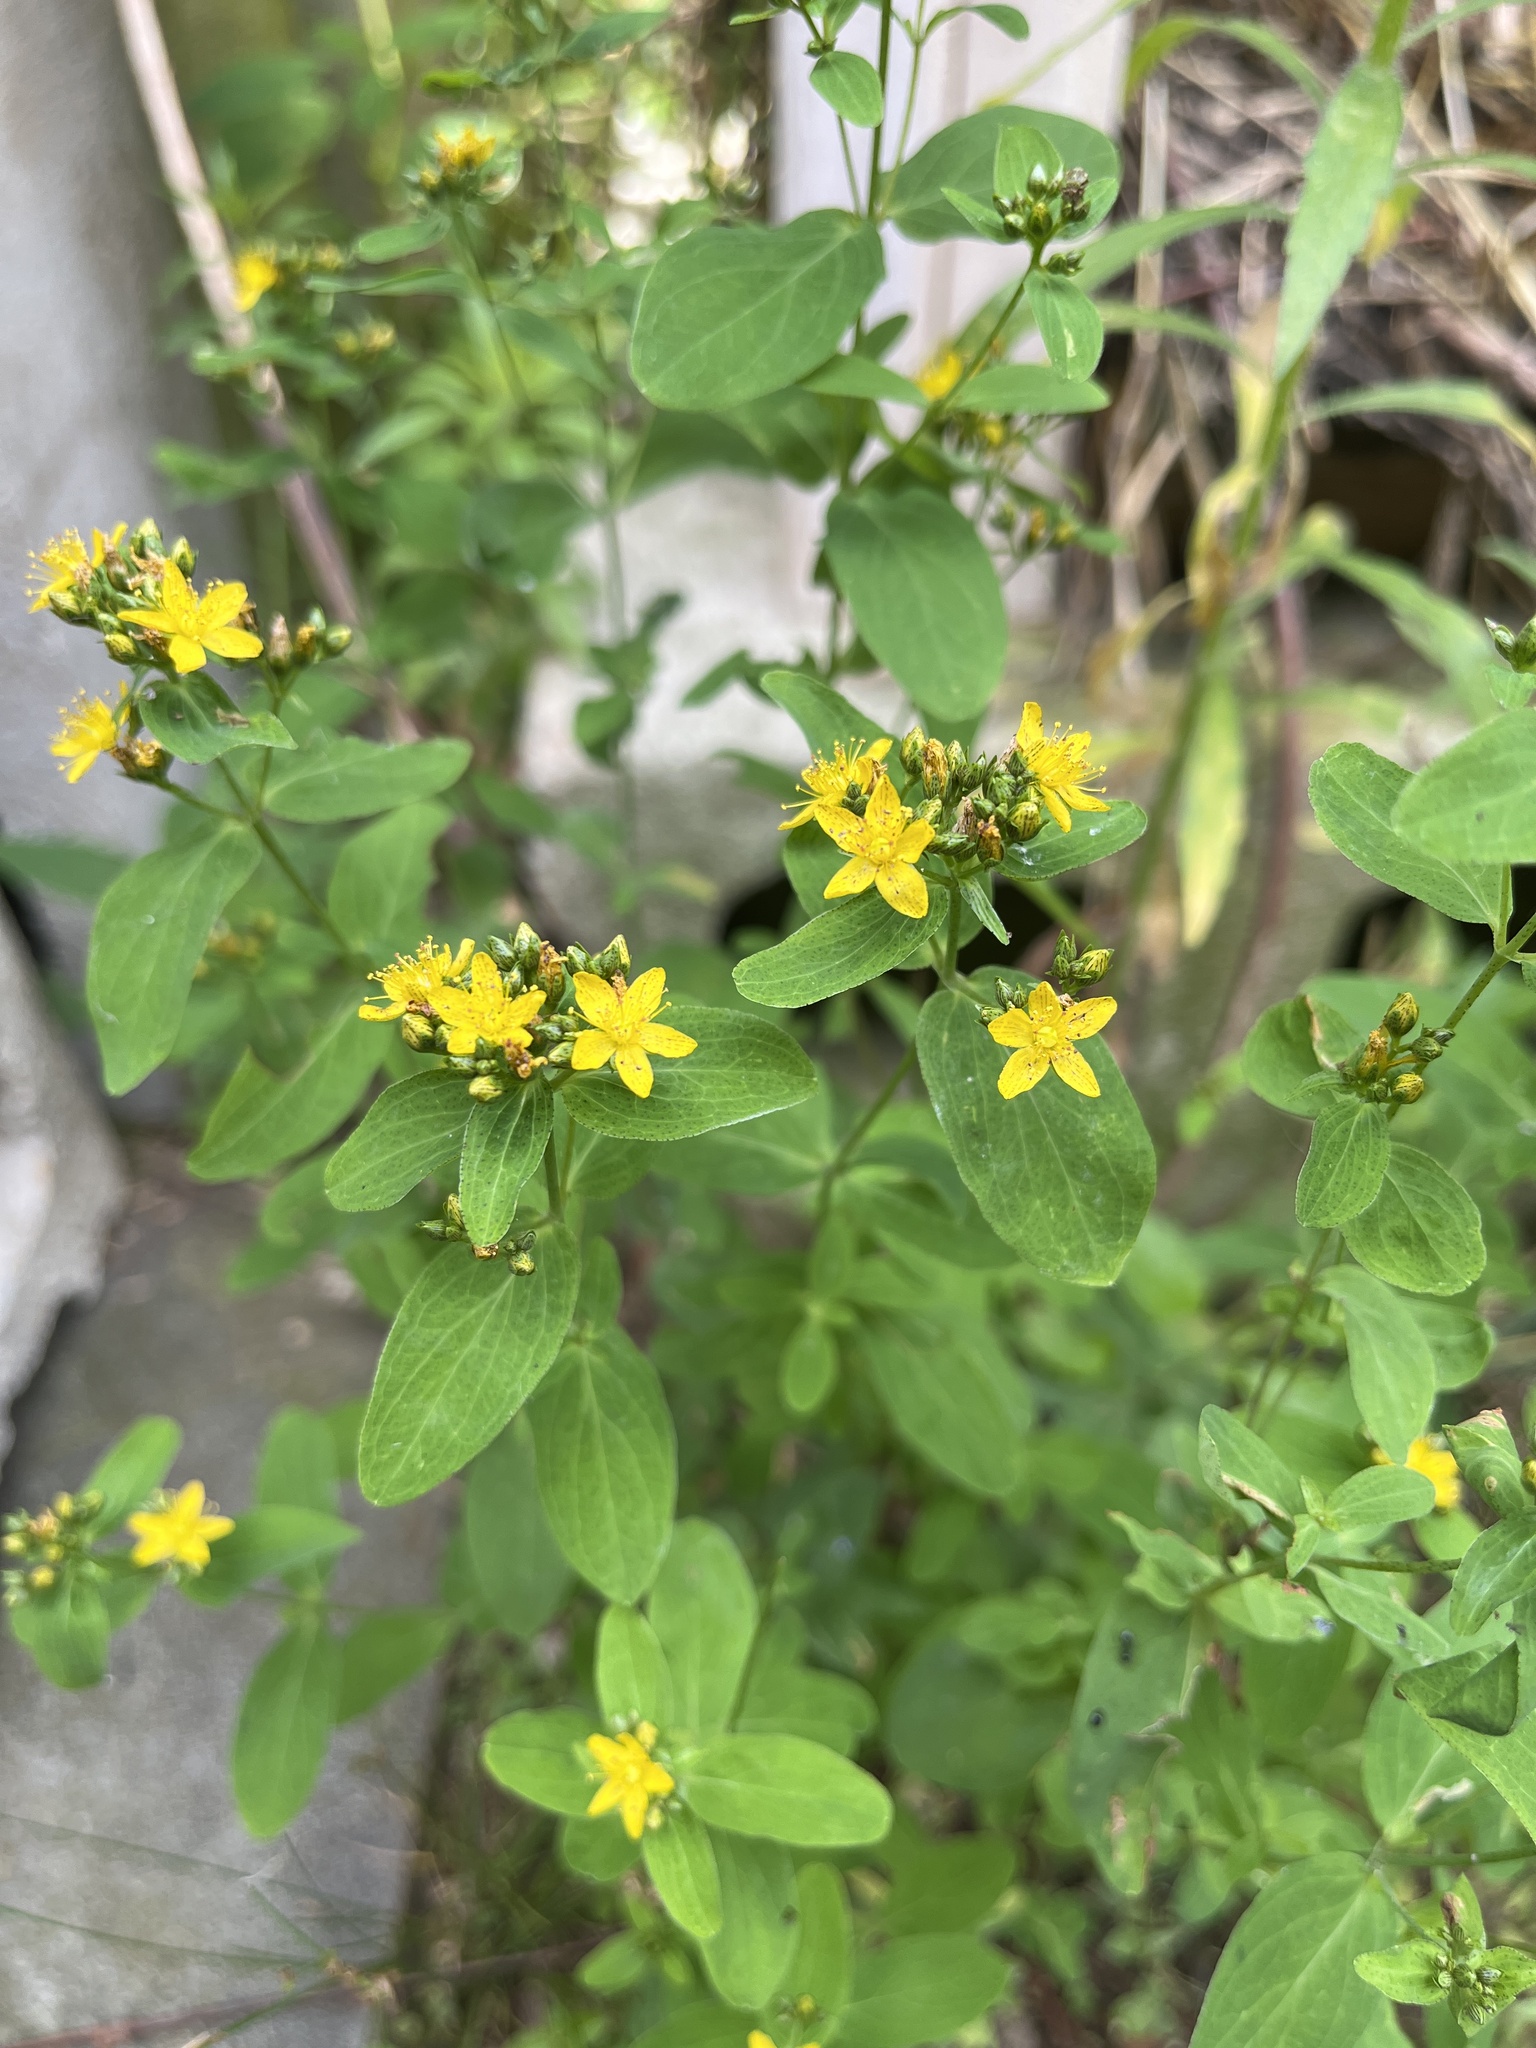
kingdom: Plantae
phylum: Tracheophyta
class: Magnoliopsida
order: Malpighiales
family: Hypericaceae
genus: Hypericum
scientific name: Hypericum punctatum
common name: Spotted st. john's-wort
